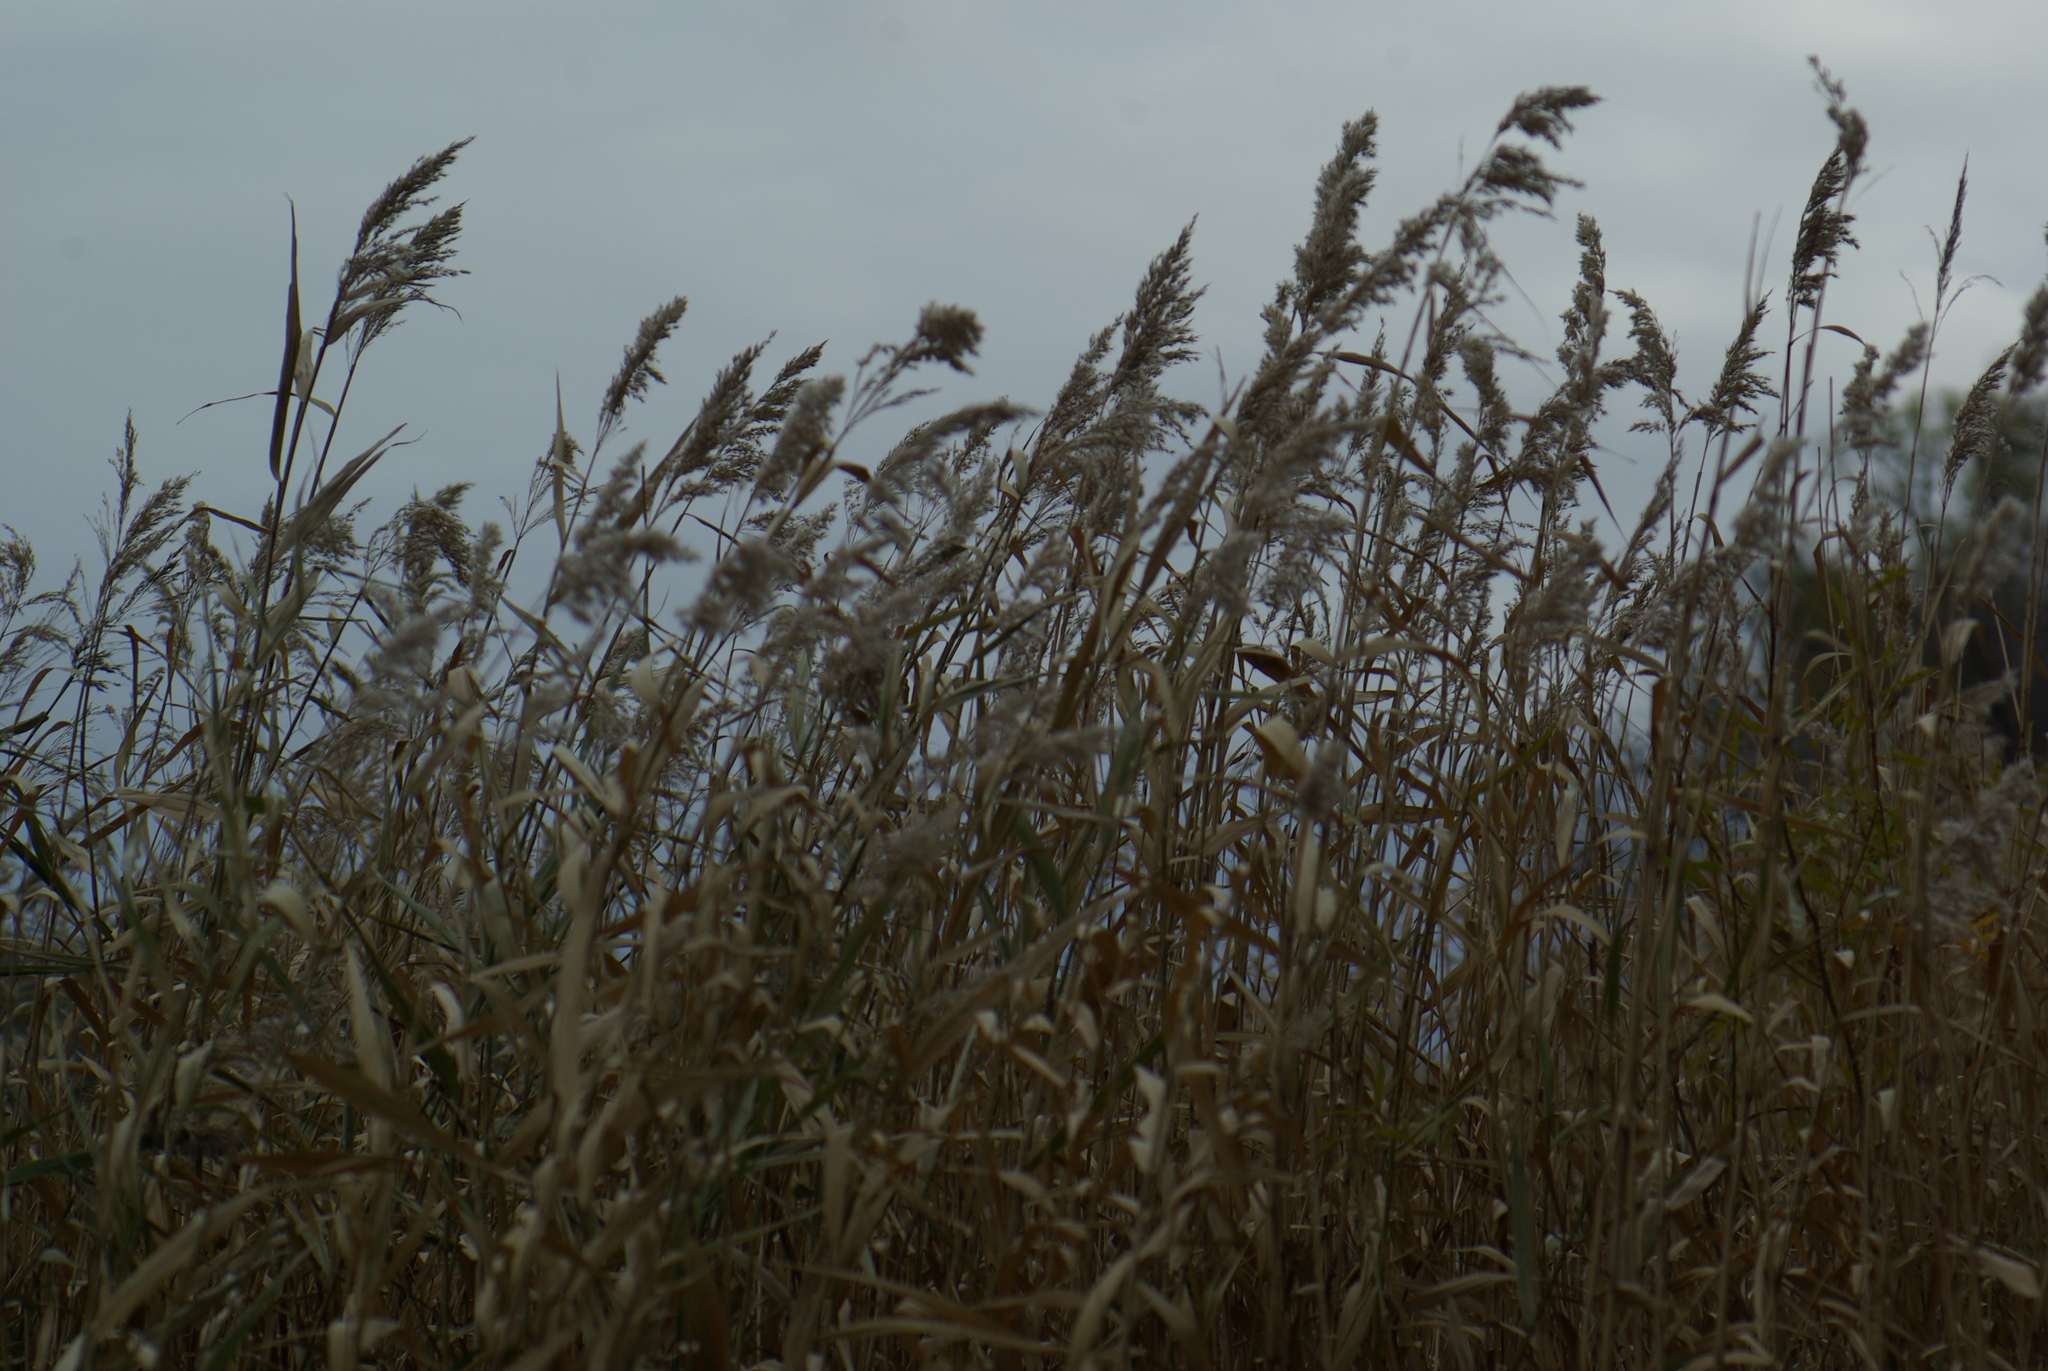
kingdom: Plantae
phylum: Tracheophyta
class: Liliopsida
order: Poales
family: Poaceae
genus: Phragmites
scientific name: Phragmites australis
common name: Common reed
